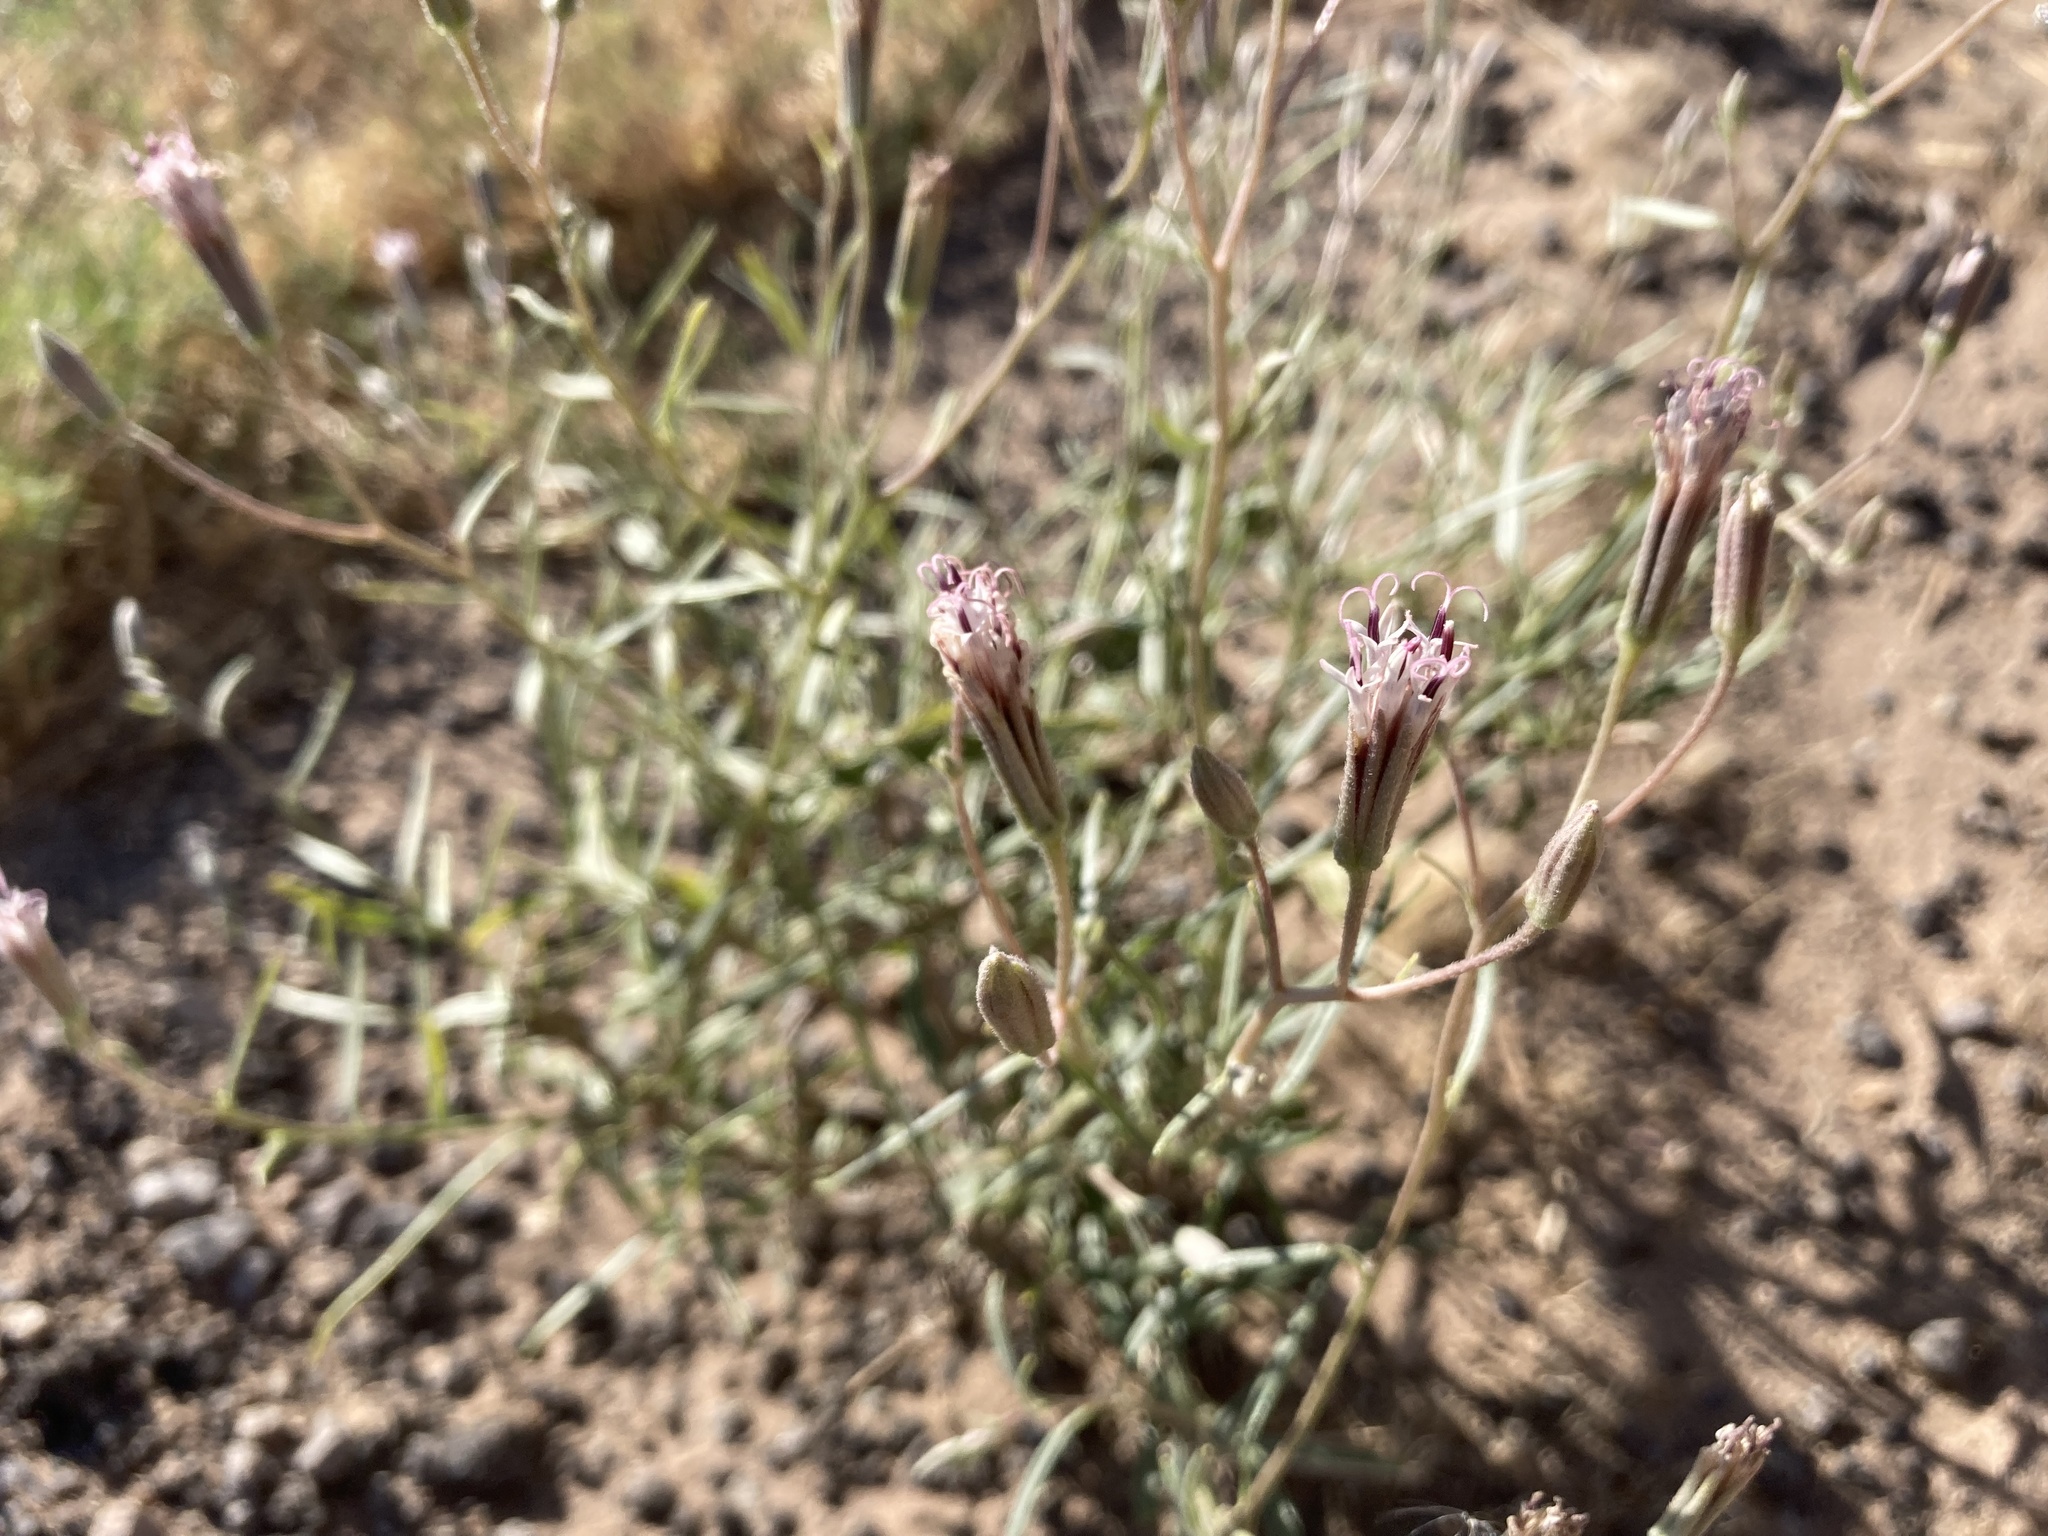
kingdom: Plantae
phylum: Tracheophyta
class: Magnoliopsida
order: Asterales
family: Asteraceae
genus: Palafoxia
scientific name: Palafoxia arida
